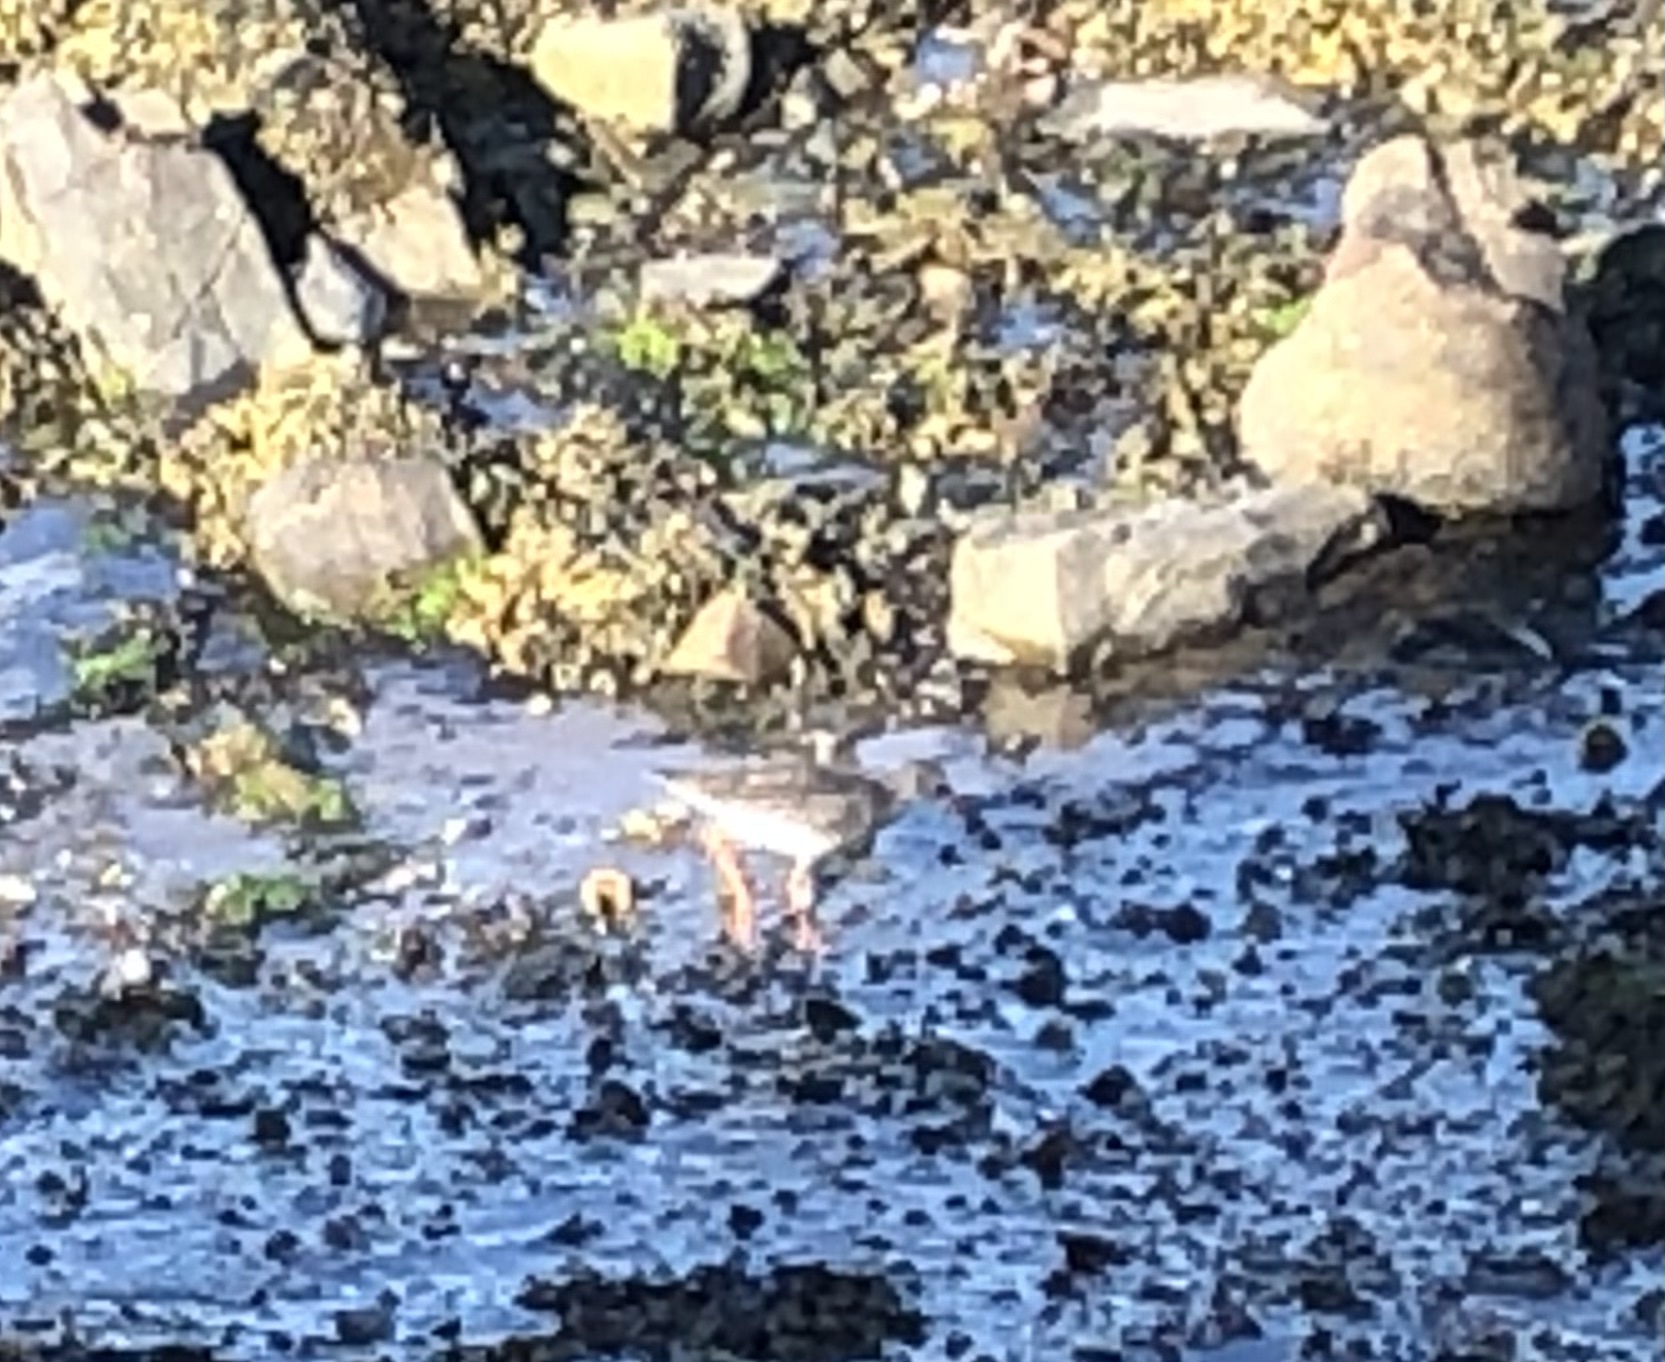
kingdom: Animalia
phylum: Chordata
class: Aves
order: Charadriiformes
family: Scolopacidae
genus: Tringa
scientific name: Tringa totanus
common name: Common redshank
